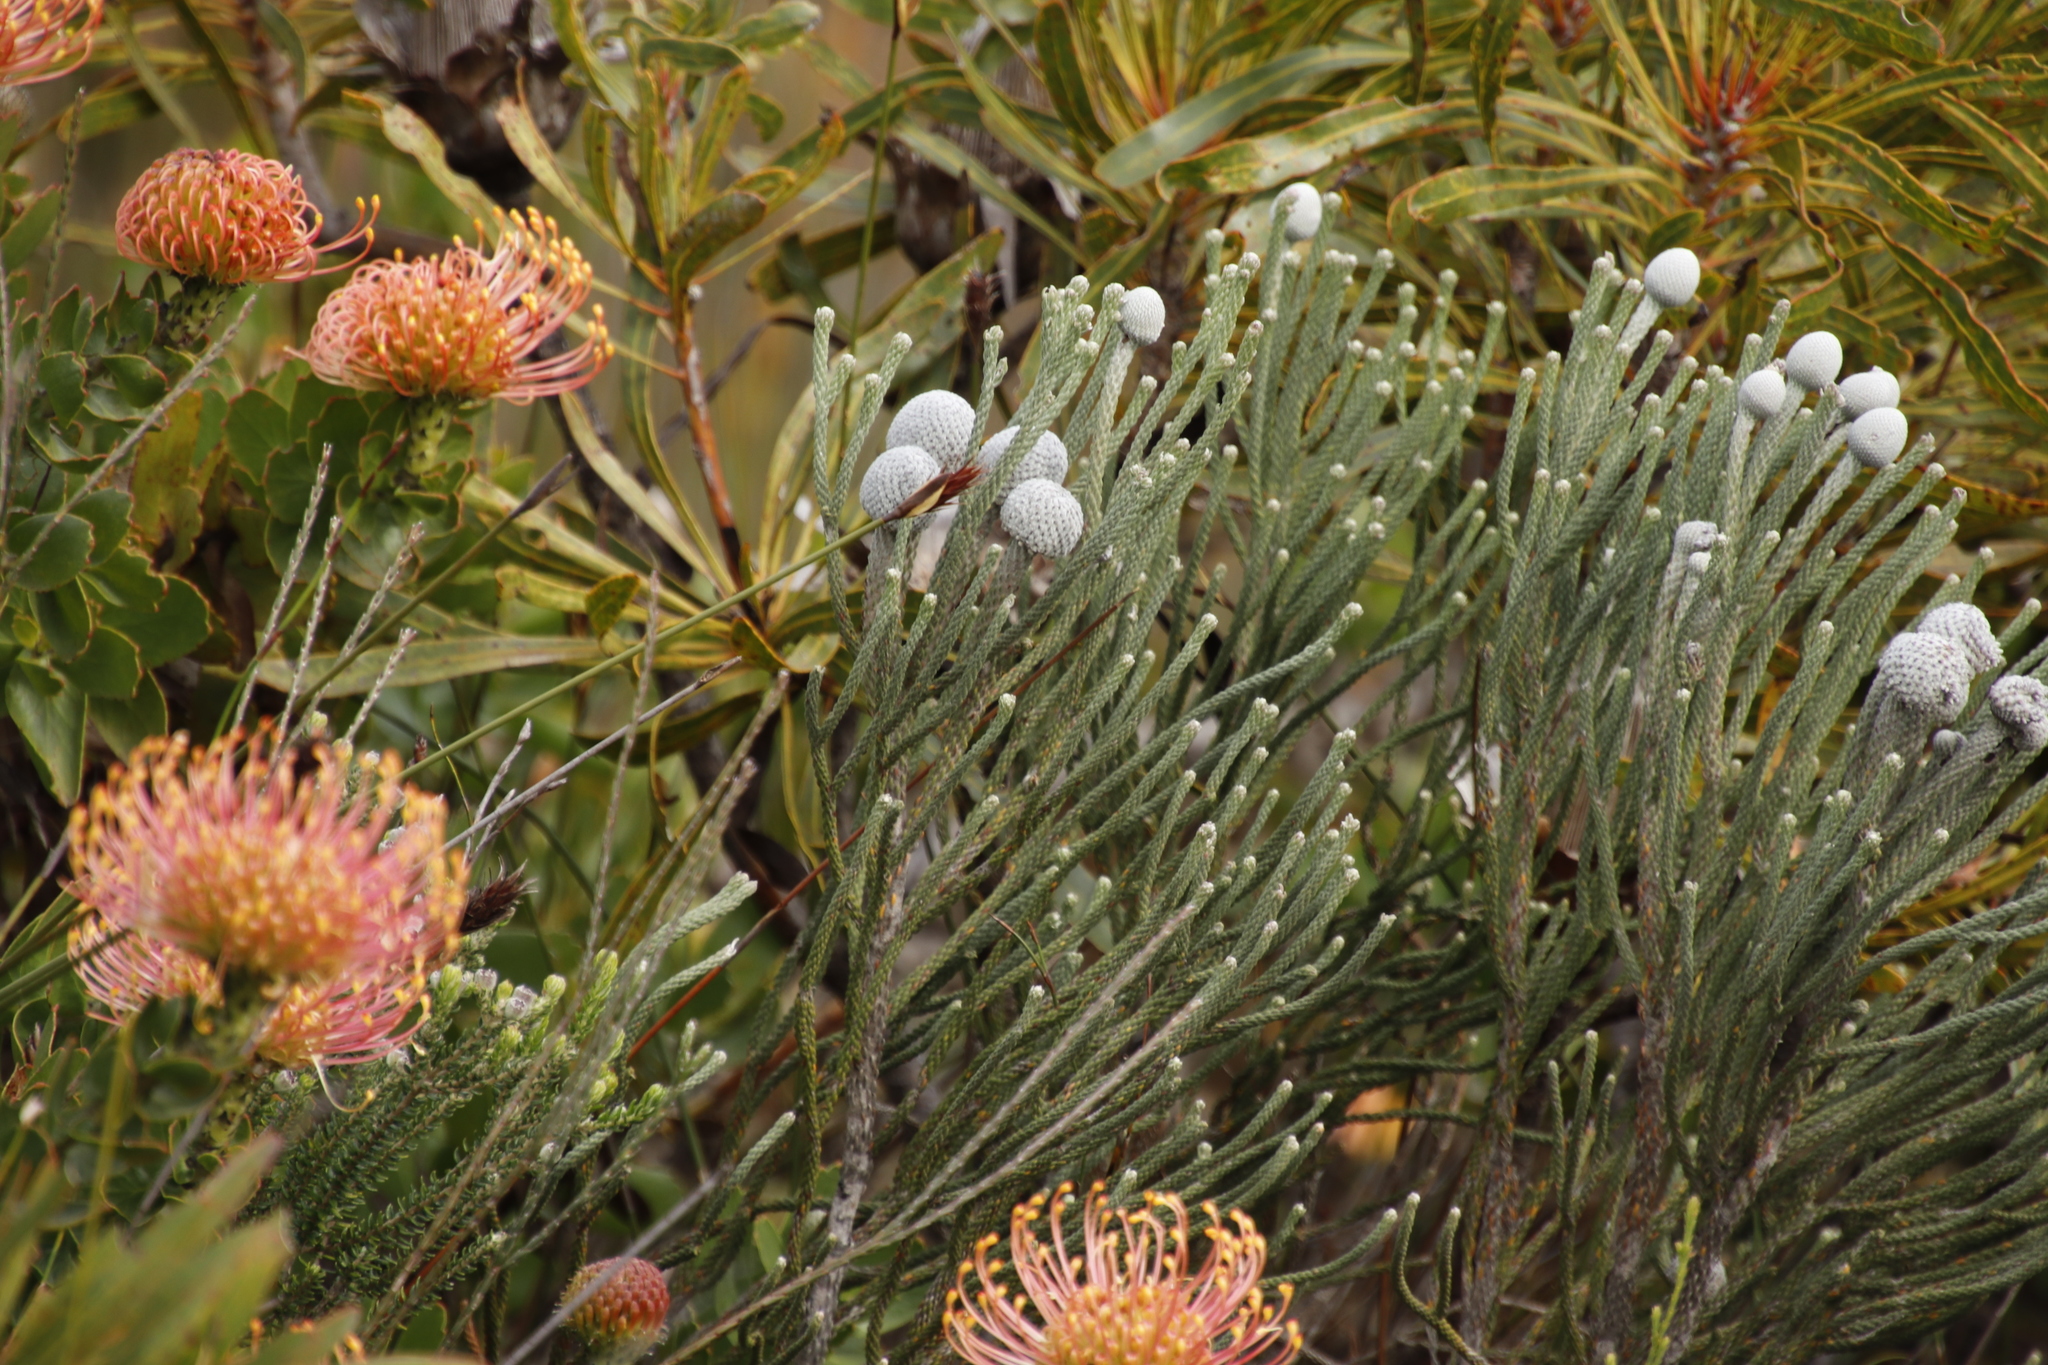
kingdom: Plantae
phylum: Tracheophyta
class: Magnoliopsida
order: Bruniales
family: Bruniaceae
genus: Brunia
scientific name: Brunia laevis
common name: Silver brunia
